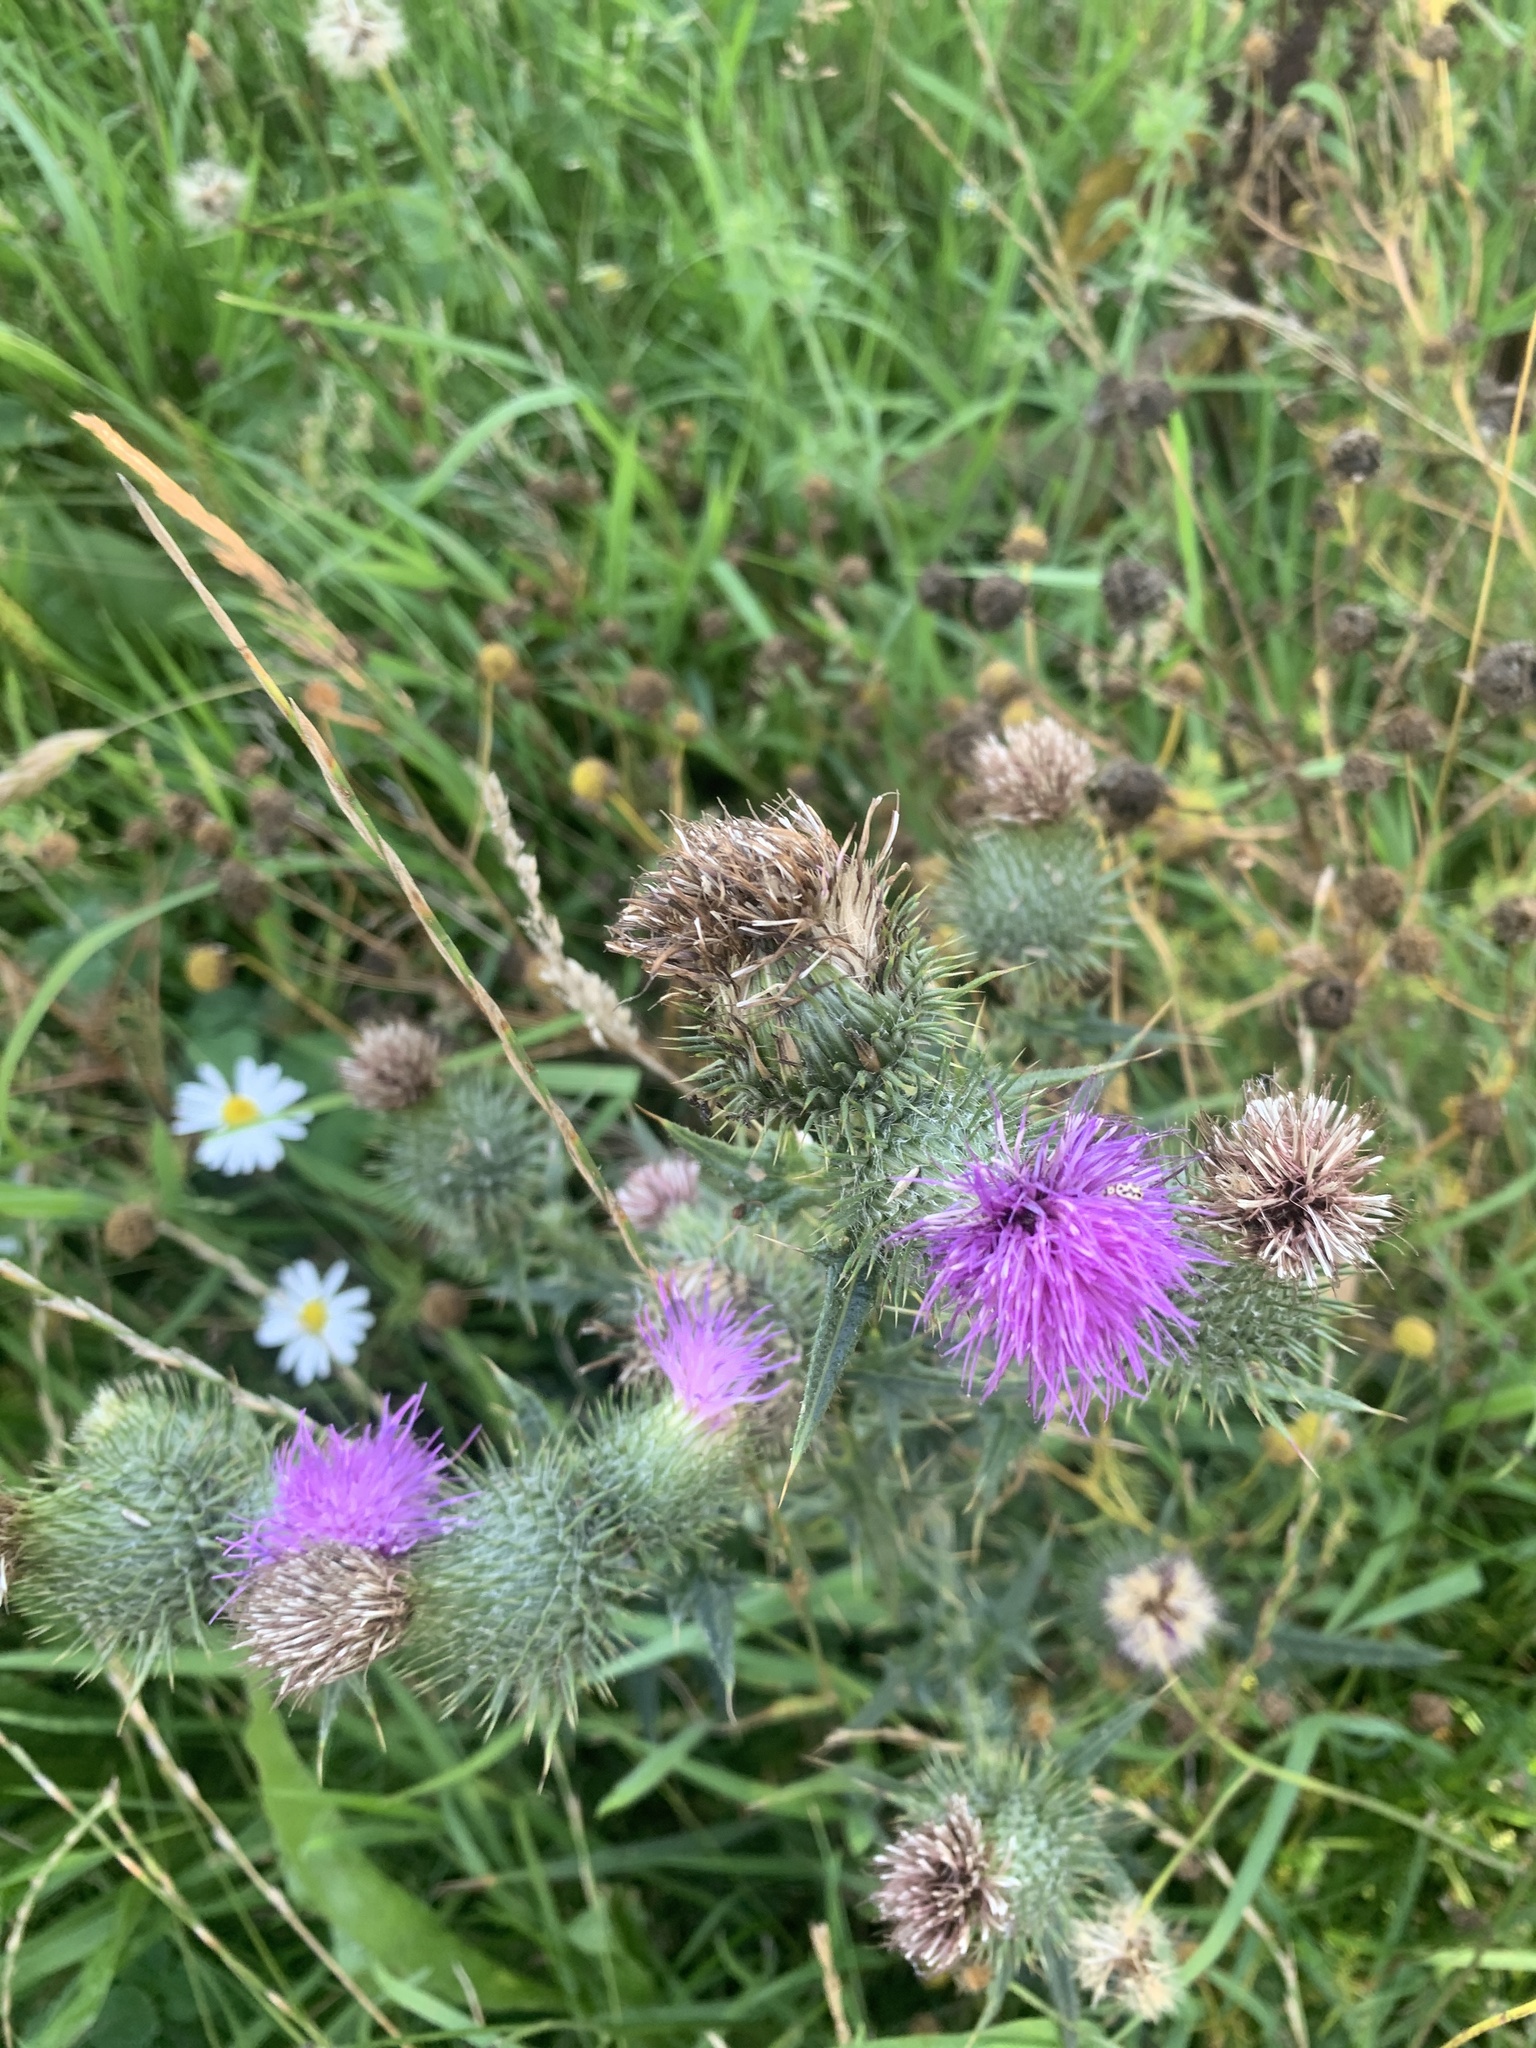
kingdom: Plantae
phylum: Tracheophyta
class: Magnoliopsida
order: Asterales
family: Asteraceae
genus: Cirsium
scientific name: Cirsium vulgare
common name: Bull thistle
